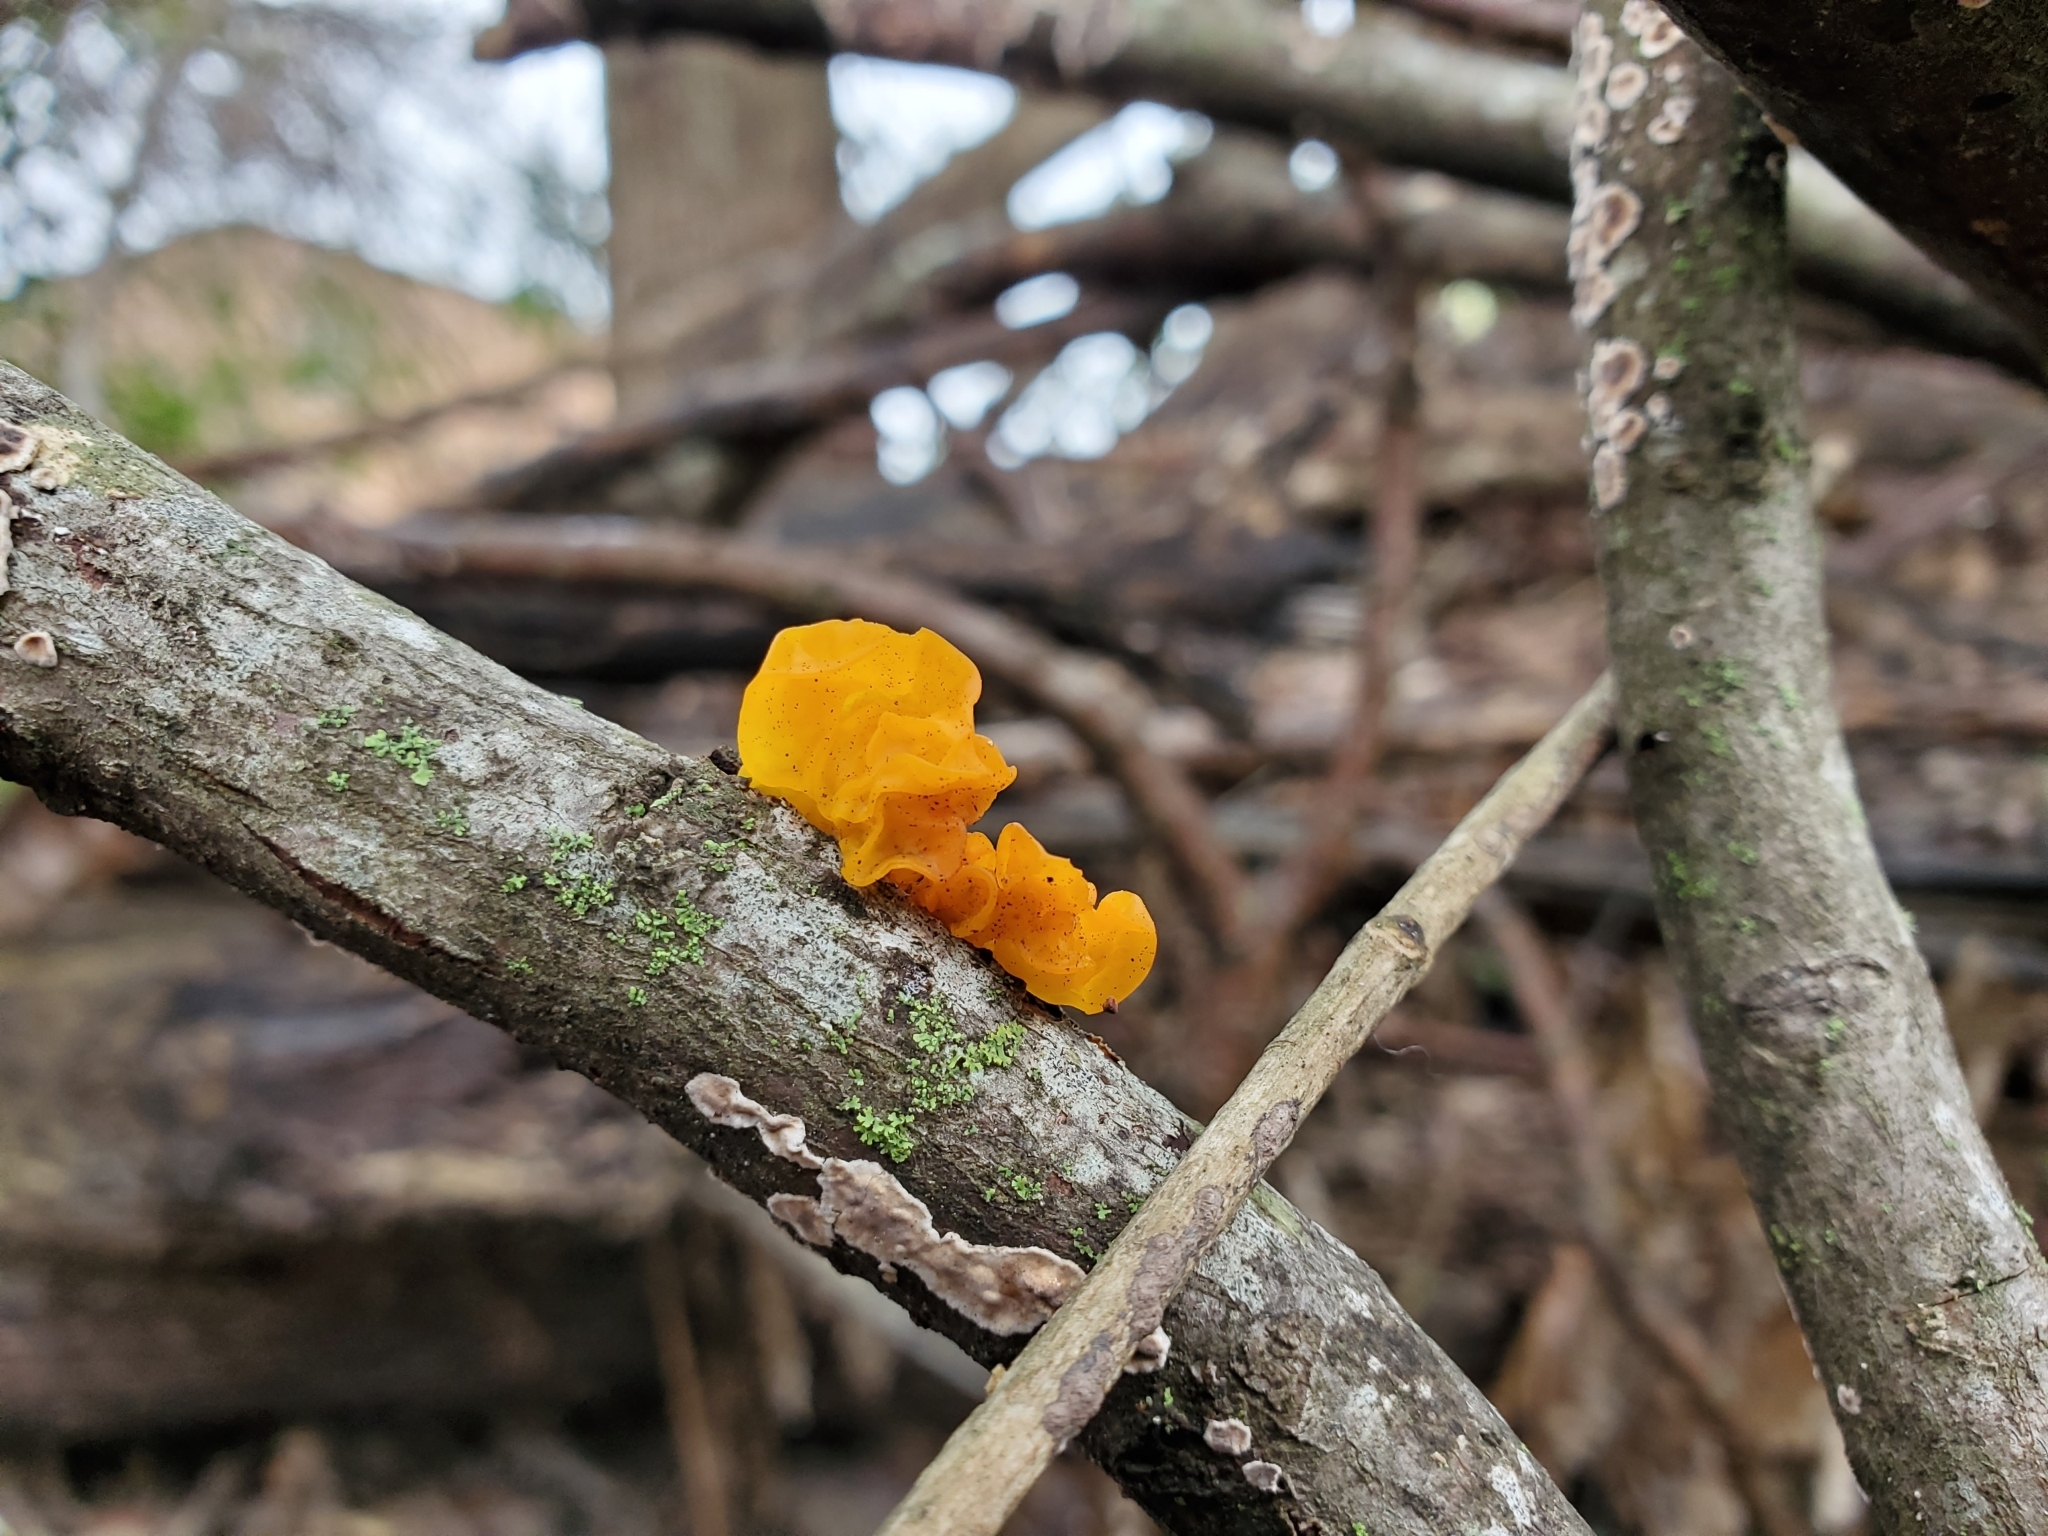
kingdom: Fungi
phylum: Basidiomycota
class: Tremellomycetes
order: Tremellales
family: Tremellaceae
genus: Tremella
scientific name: Tremella mesenterica
